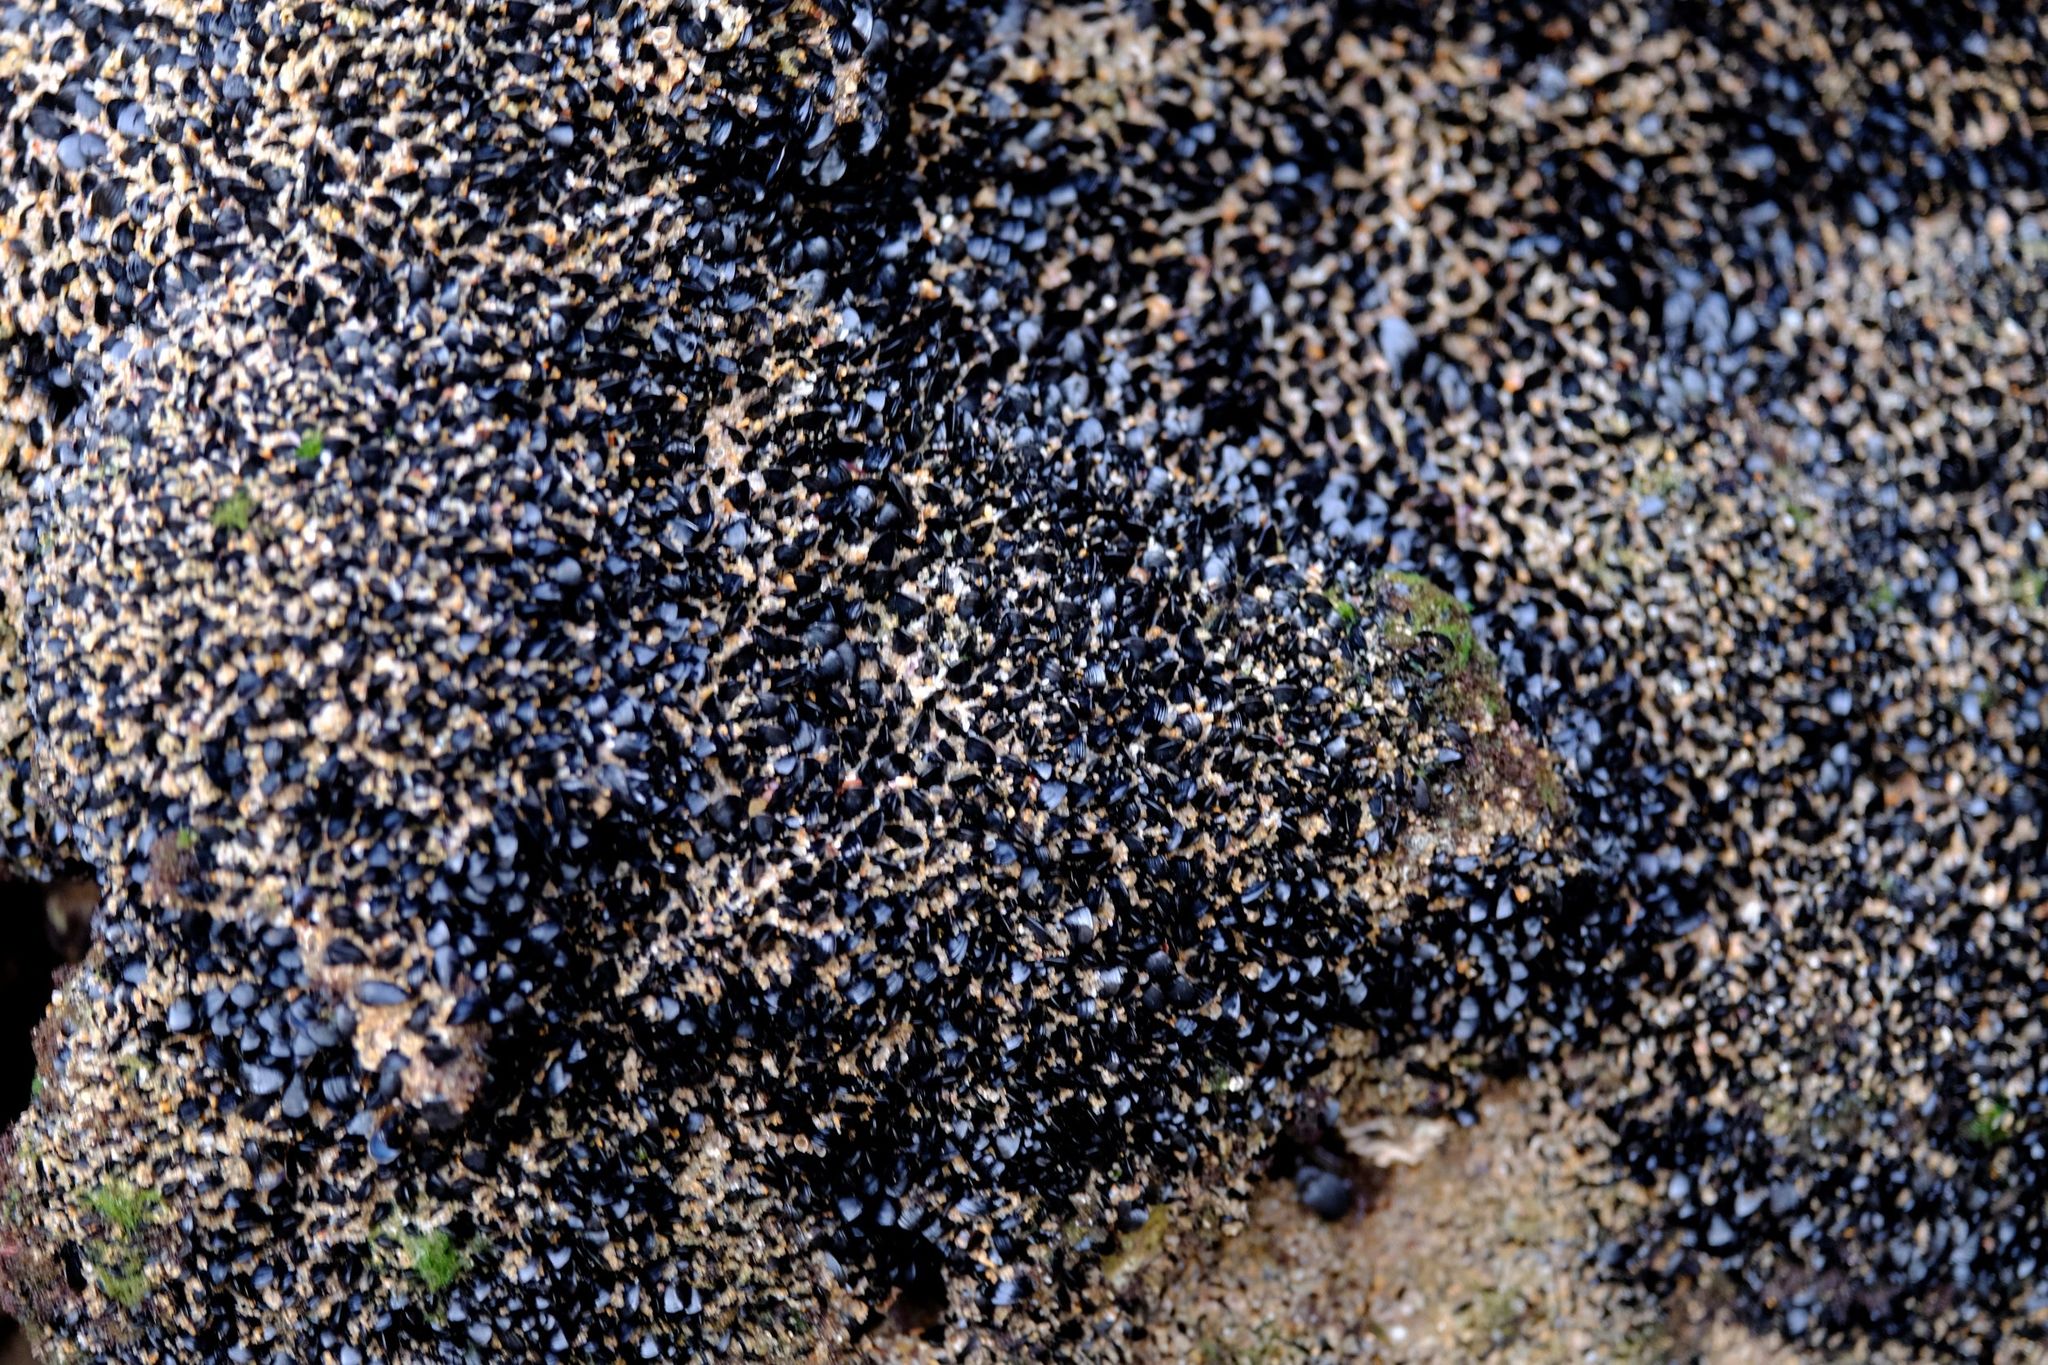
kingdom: Animalia
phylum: Mollusca
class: Bivalvia
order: Mytilida
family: Mytilidae
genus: Xenostrobus
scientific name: Xenostrobus pulex
